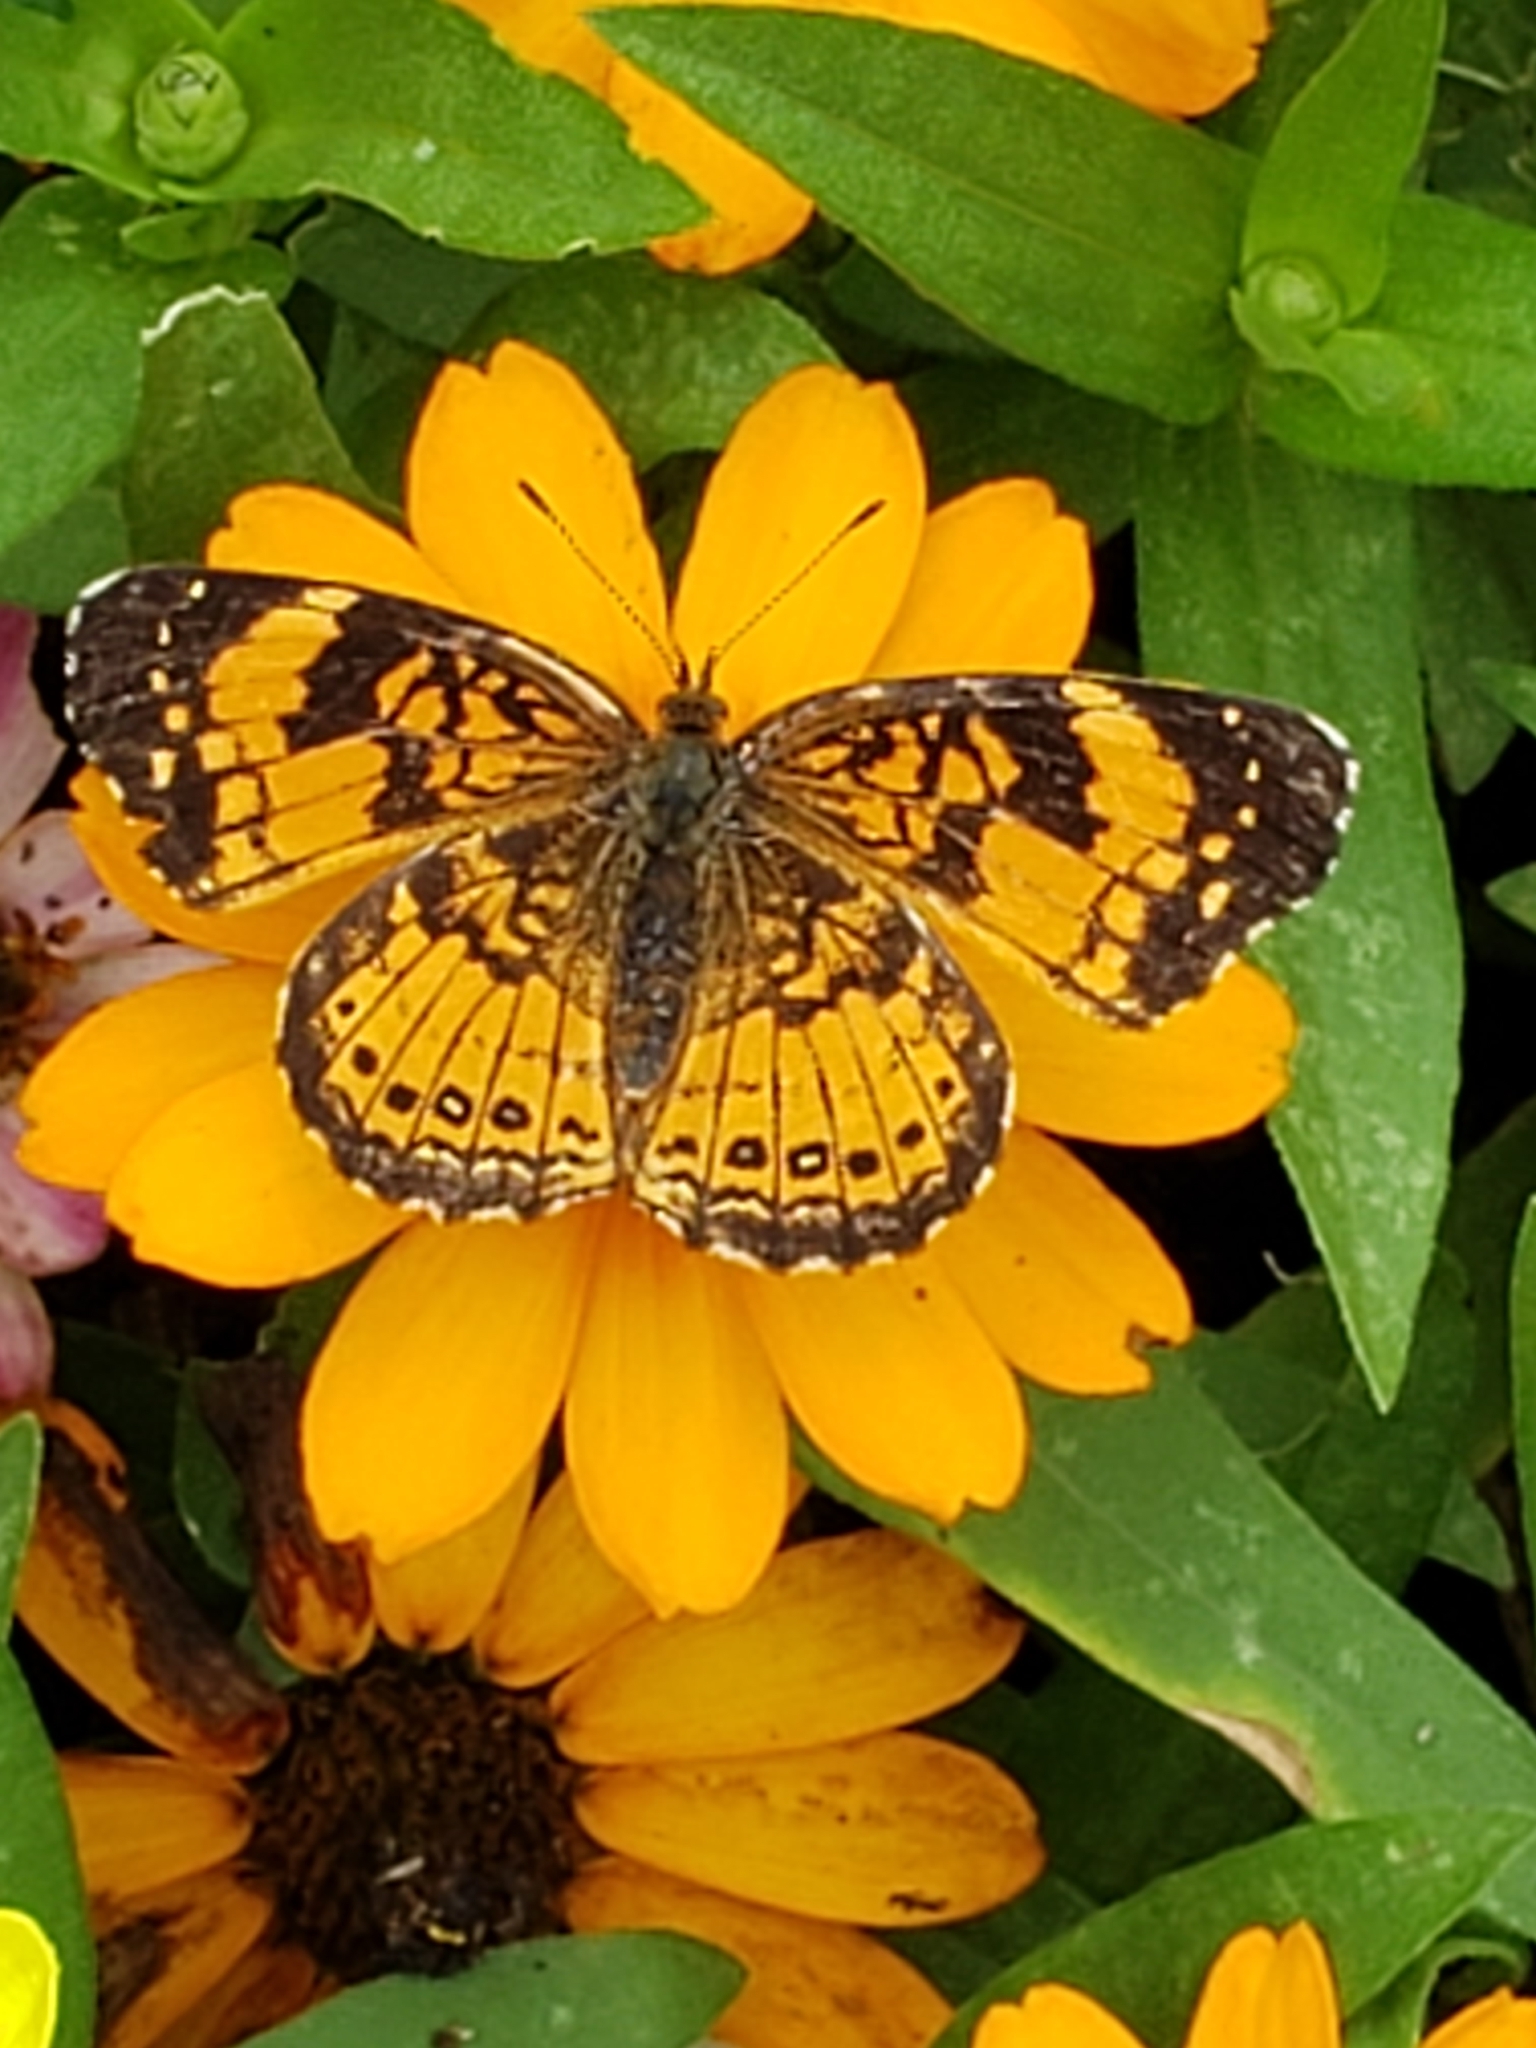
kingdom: Animalia
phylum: Arthropoda
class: Insecta
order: Lepidoptera
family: Nymphalidae
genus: Chlosyne
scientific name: Chlosyne nycteis
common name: Silvery checkerspot
